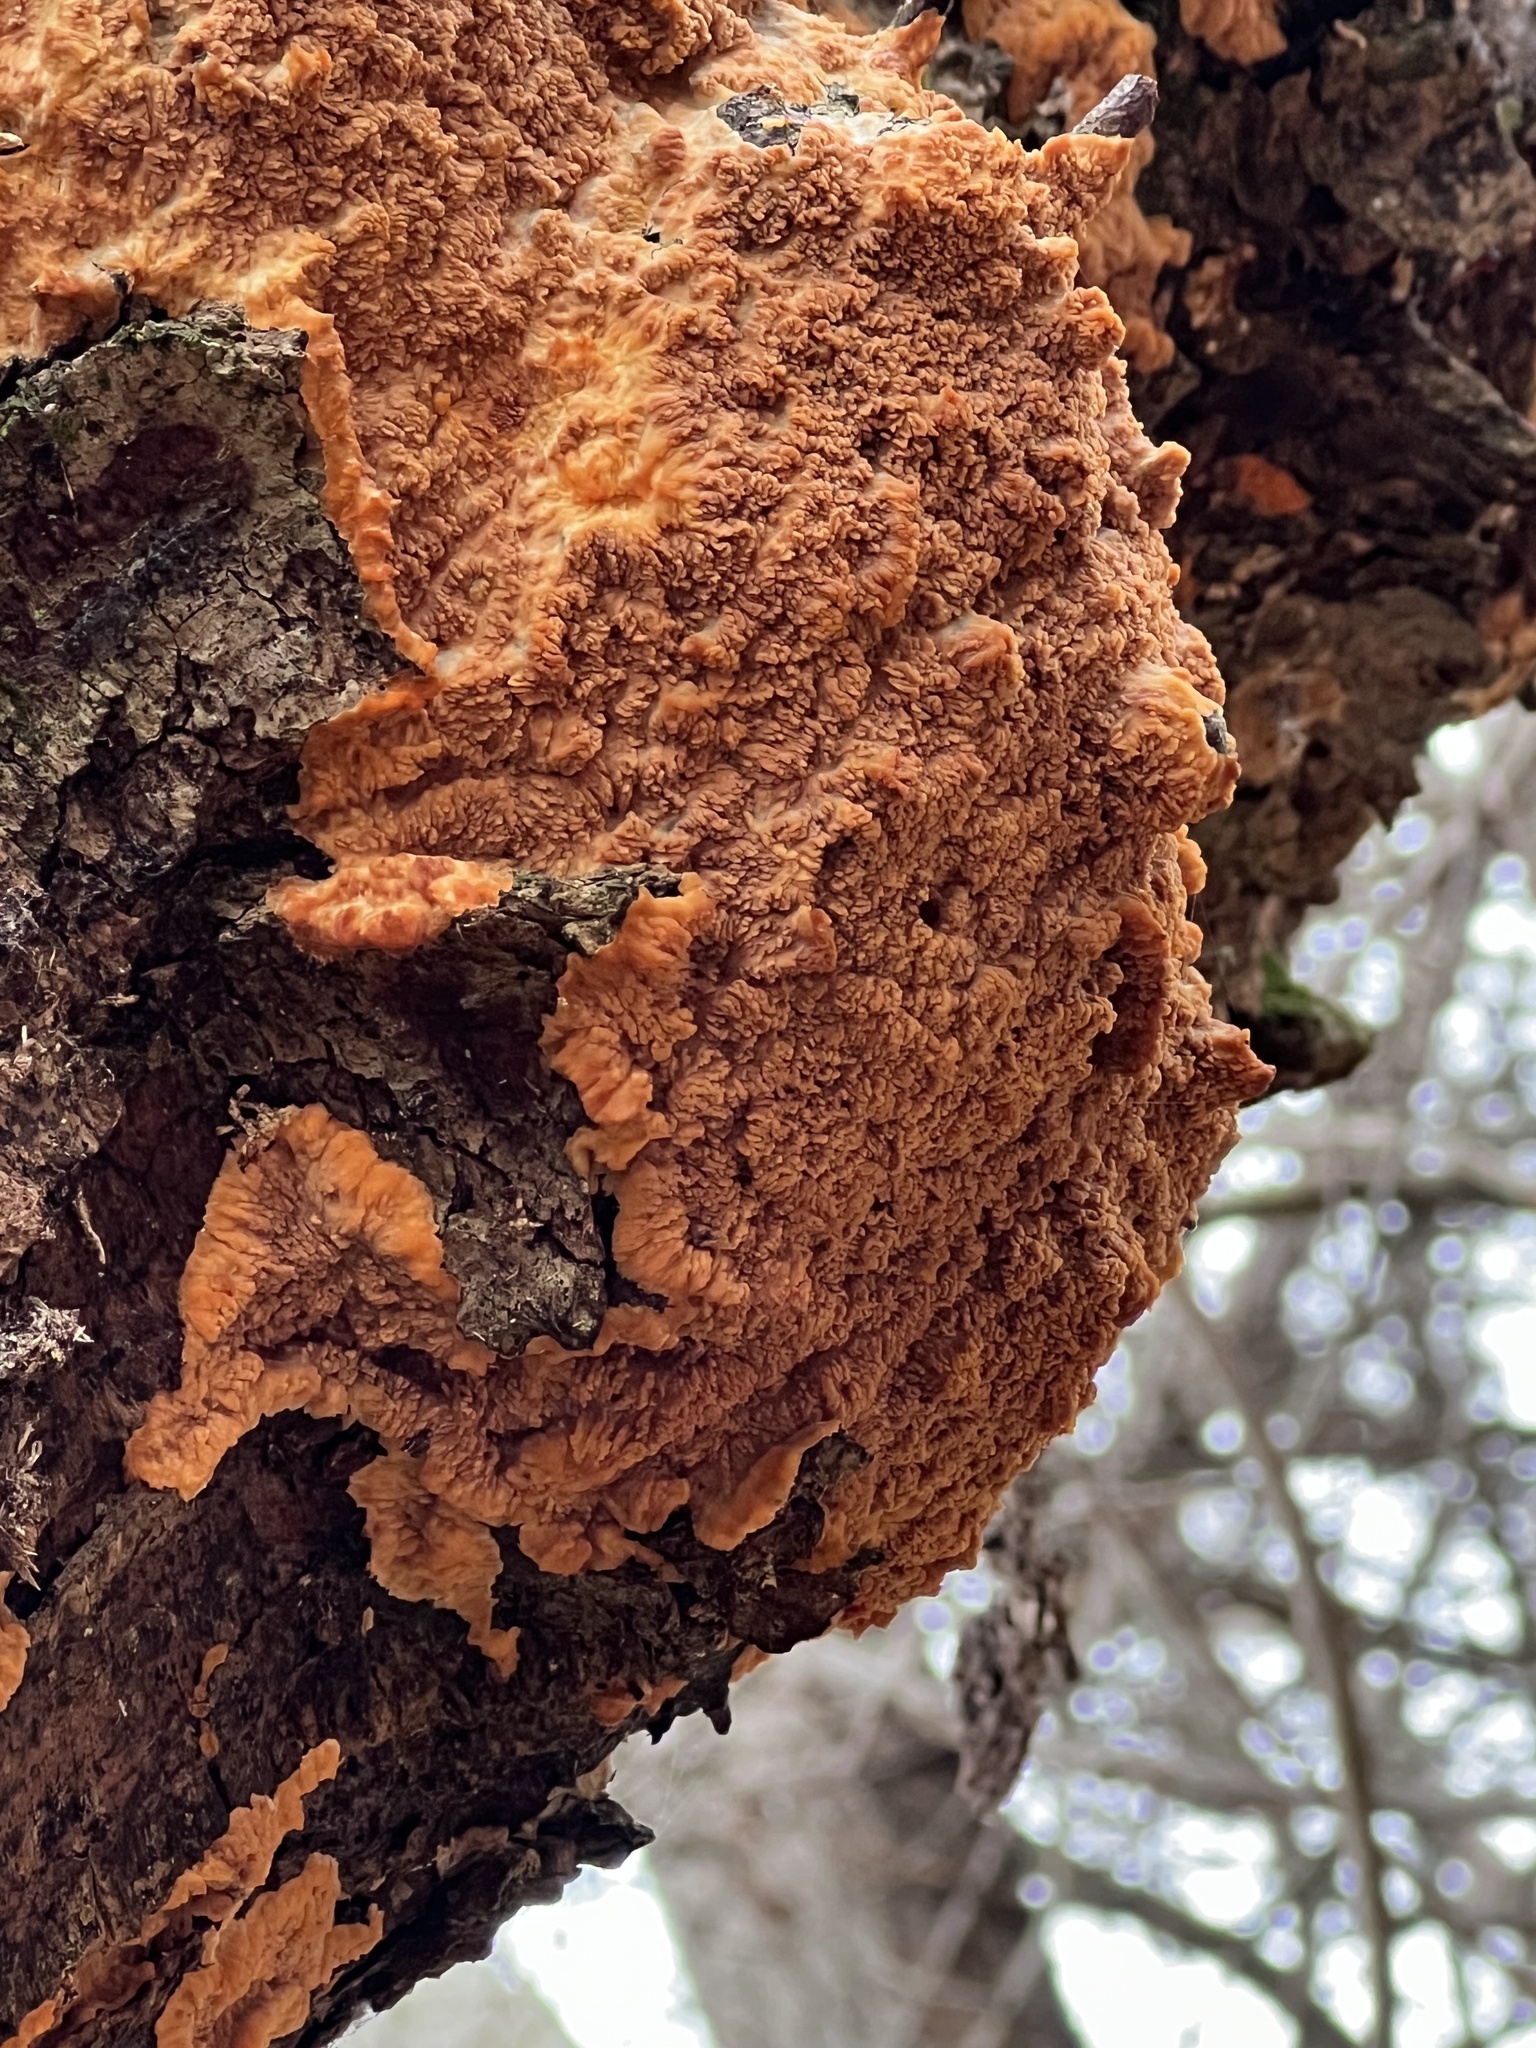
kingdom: Fungi
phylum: Basidiomycota
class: Agaricomycetes
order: Polyporales
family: Meruliaceae
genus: Phlebia
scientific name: Phlebia radiata
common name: Wrinkled crust
